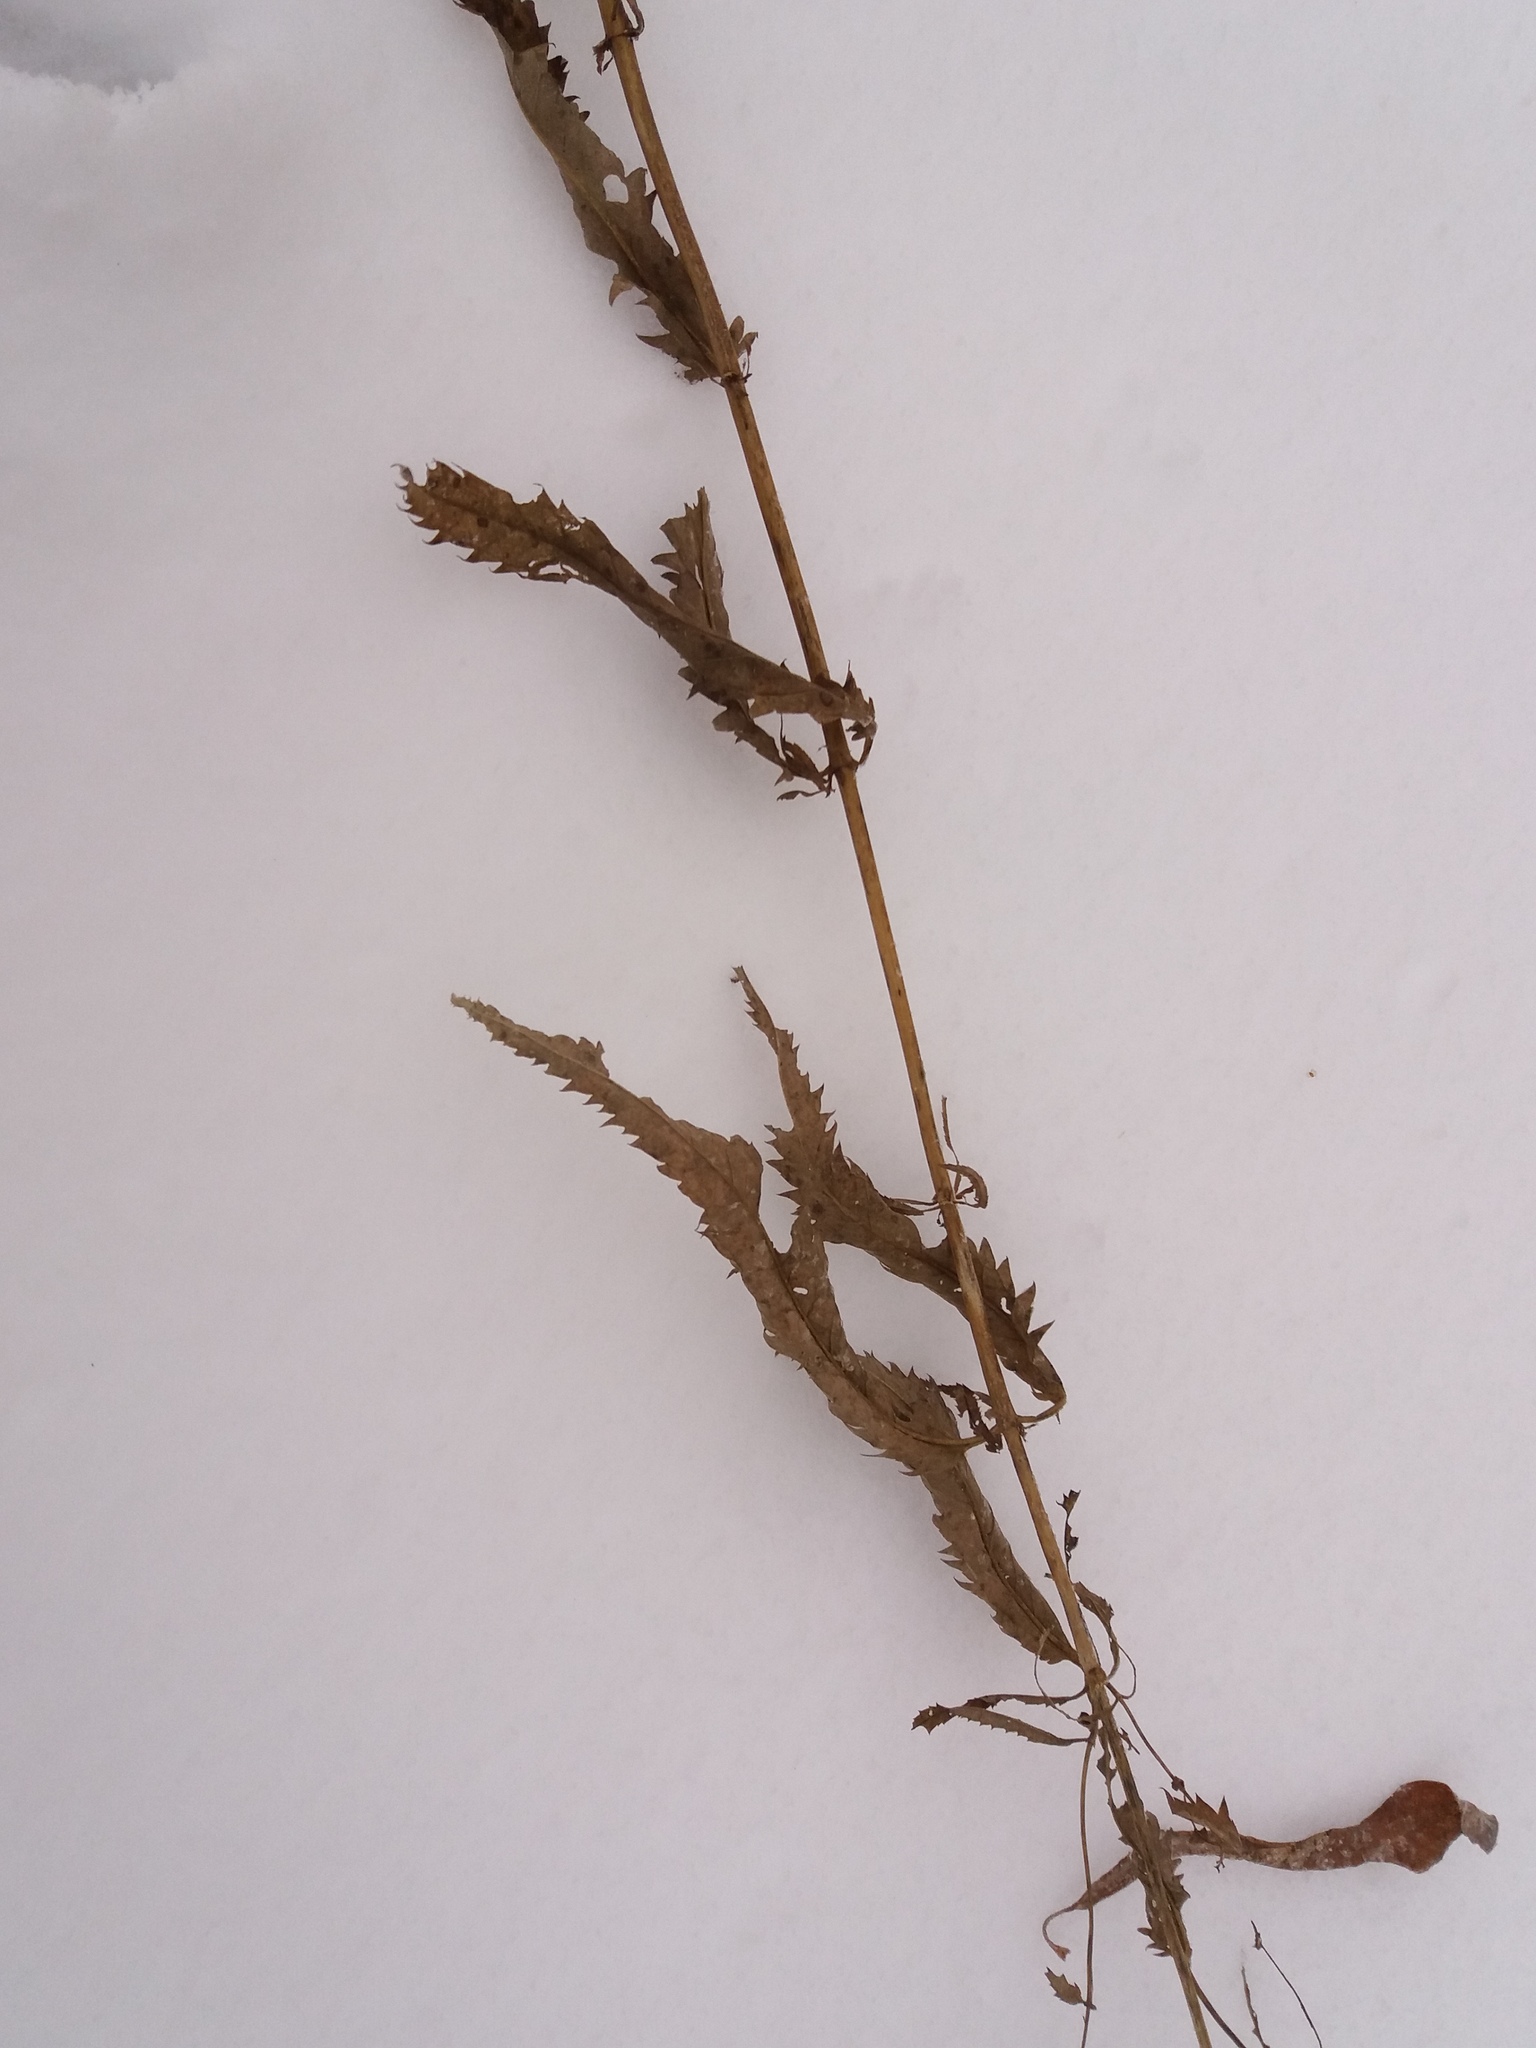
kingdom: Plantae
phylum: Tracheophyta
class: Magnoliopsida
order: Lamiales
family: Plantaginaceae
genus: Veronica
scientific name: Veronica longifolia
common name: Garden speedwell
